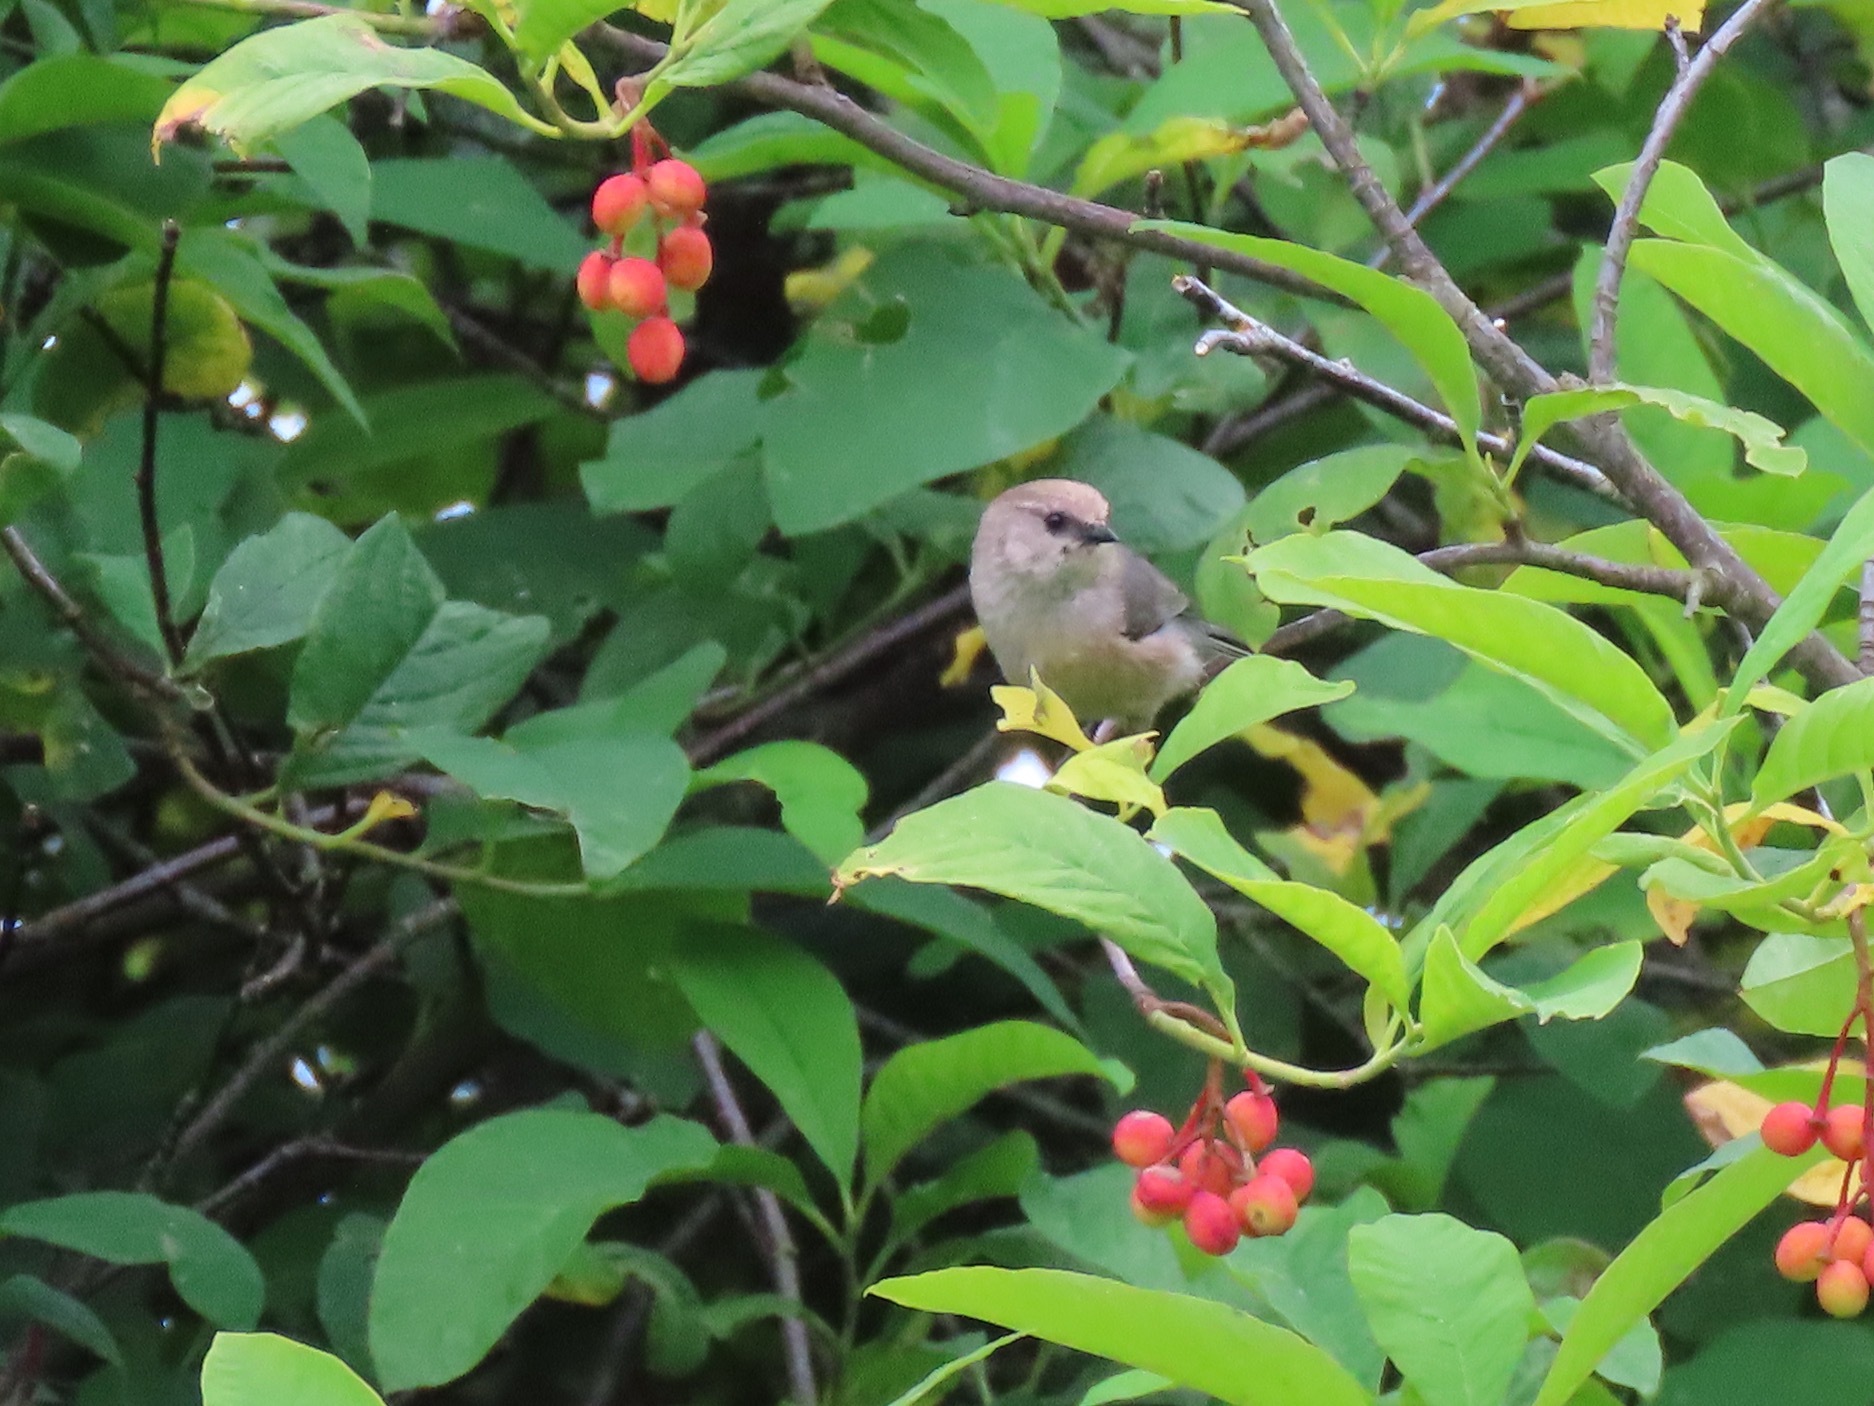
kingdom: Animalia
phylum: Chordata
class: Aves
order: Passeriformes
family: Aegithalidae
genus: Psaltriparus
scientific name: Psaltriparus minimus
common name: American bushtit
